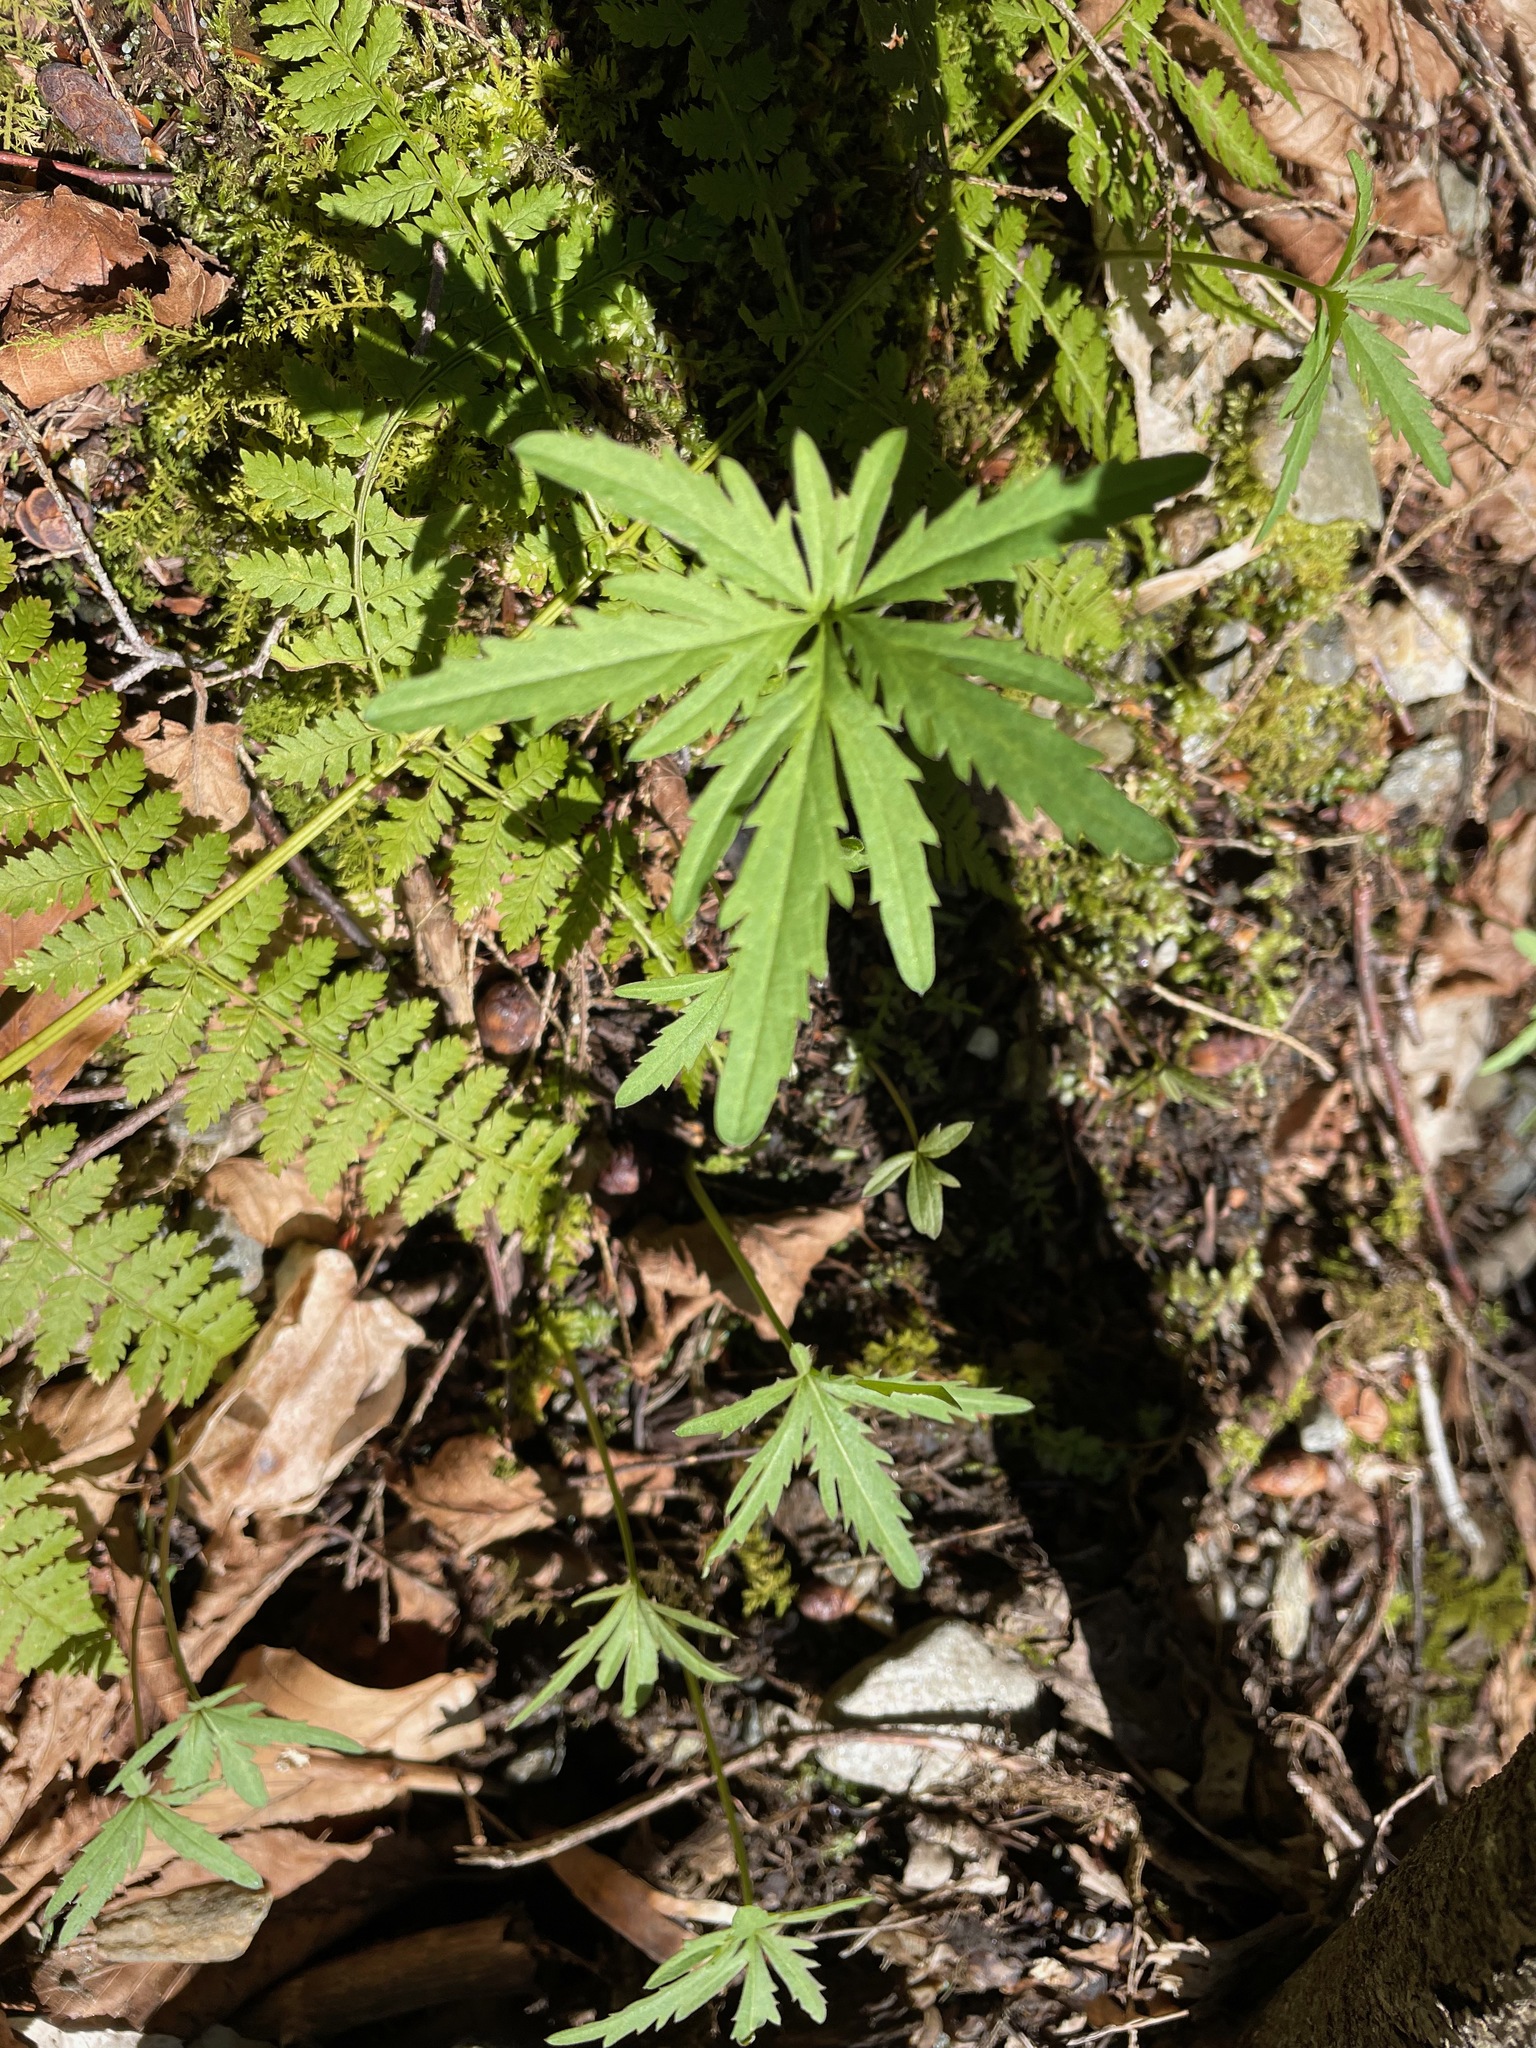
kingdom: Plantae
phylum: Tracheophyta
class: Magnoliopsida
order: Brassicales
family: Brassicaceae
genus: Cardamine
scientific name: Cardamine concatenata
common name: Cut-leaf toothcup
